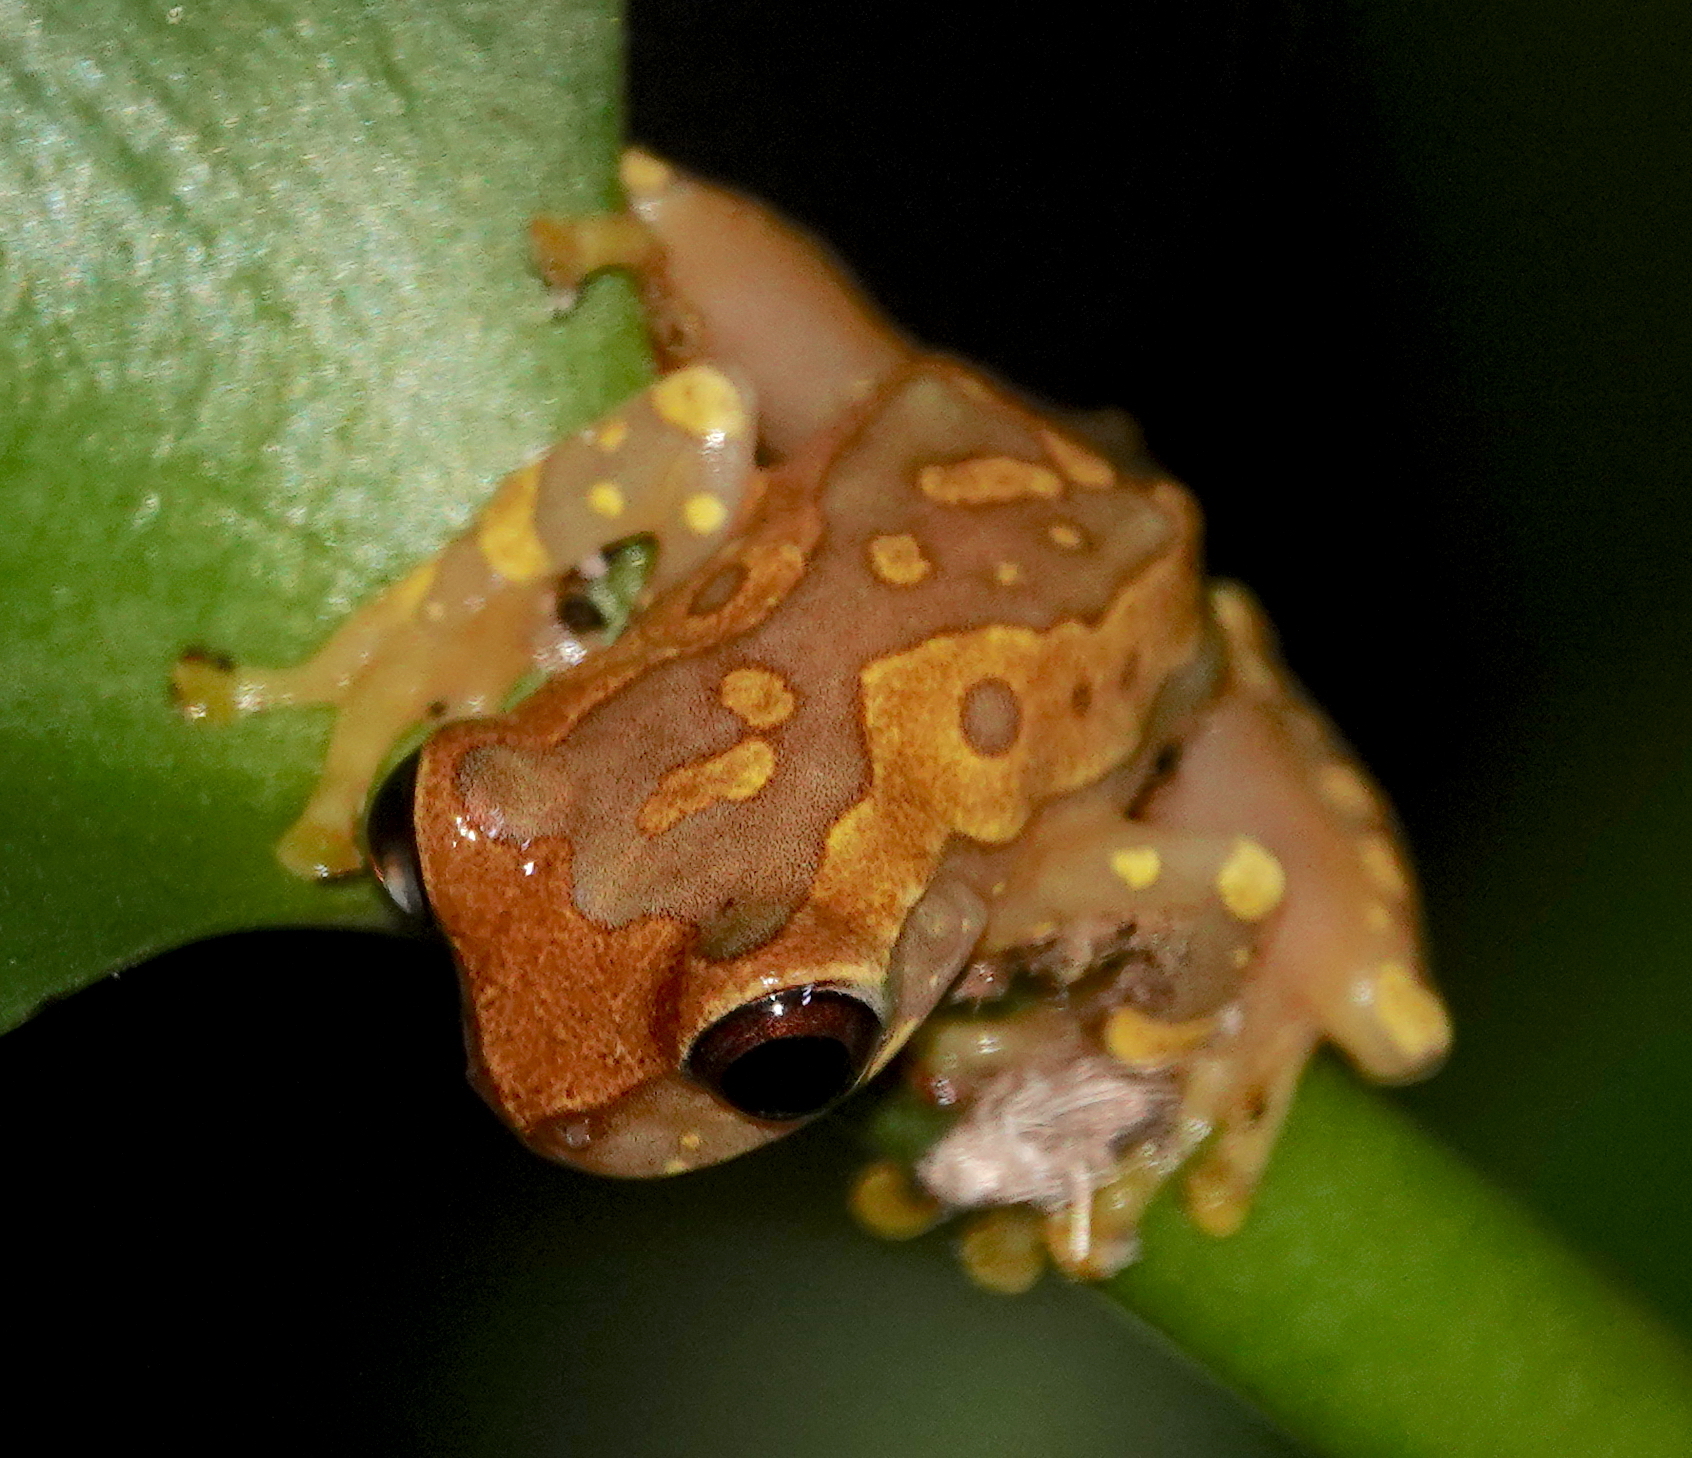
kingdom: Animalia
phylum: Chordata
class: Amphibia
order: Anura
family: Hylidae
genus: Dendropsophus
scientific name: Dendropsophus ebraccatus
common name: Hourglass treefrog
